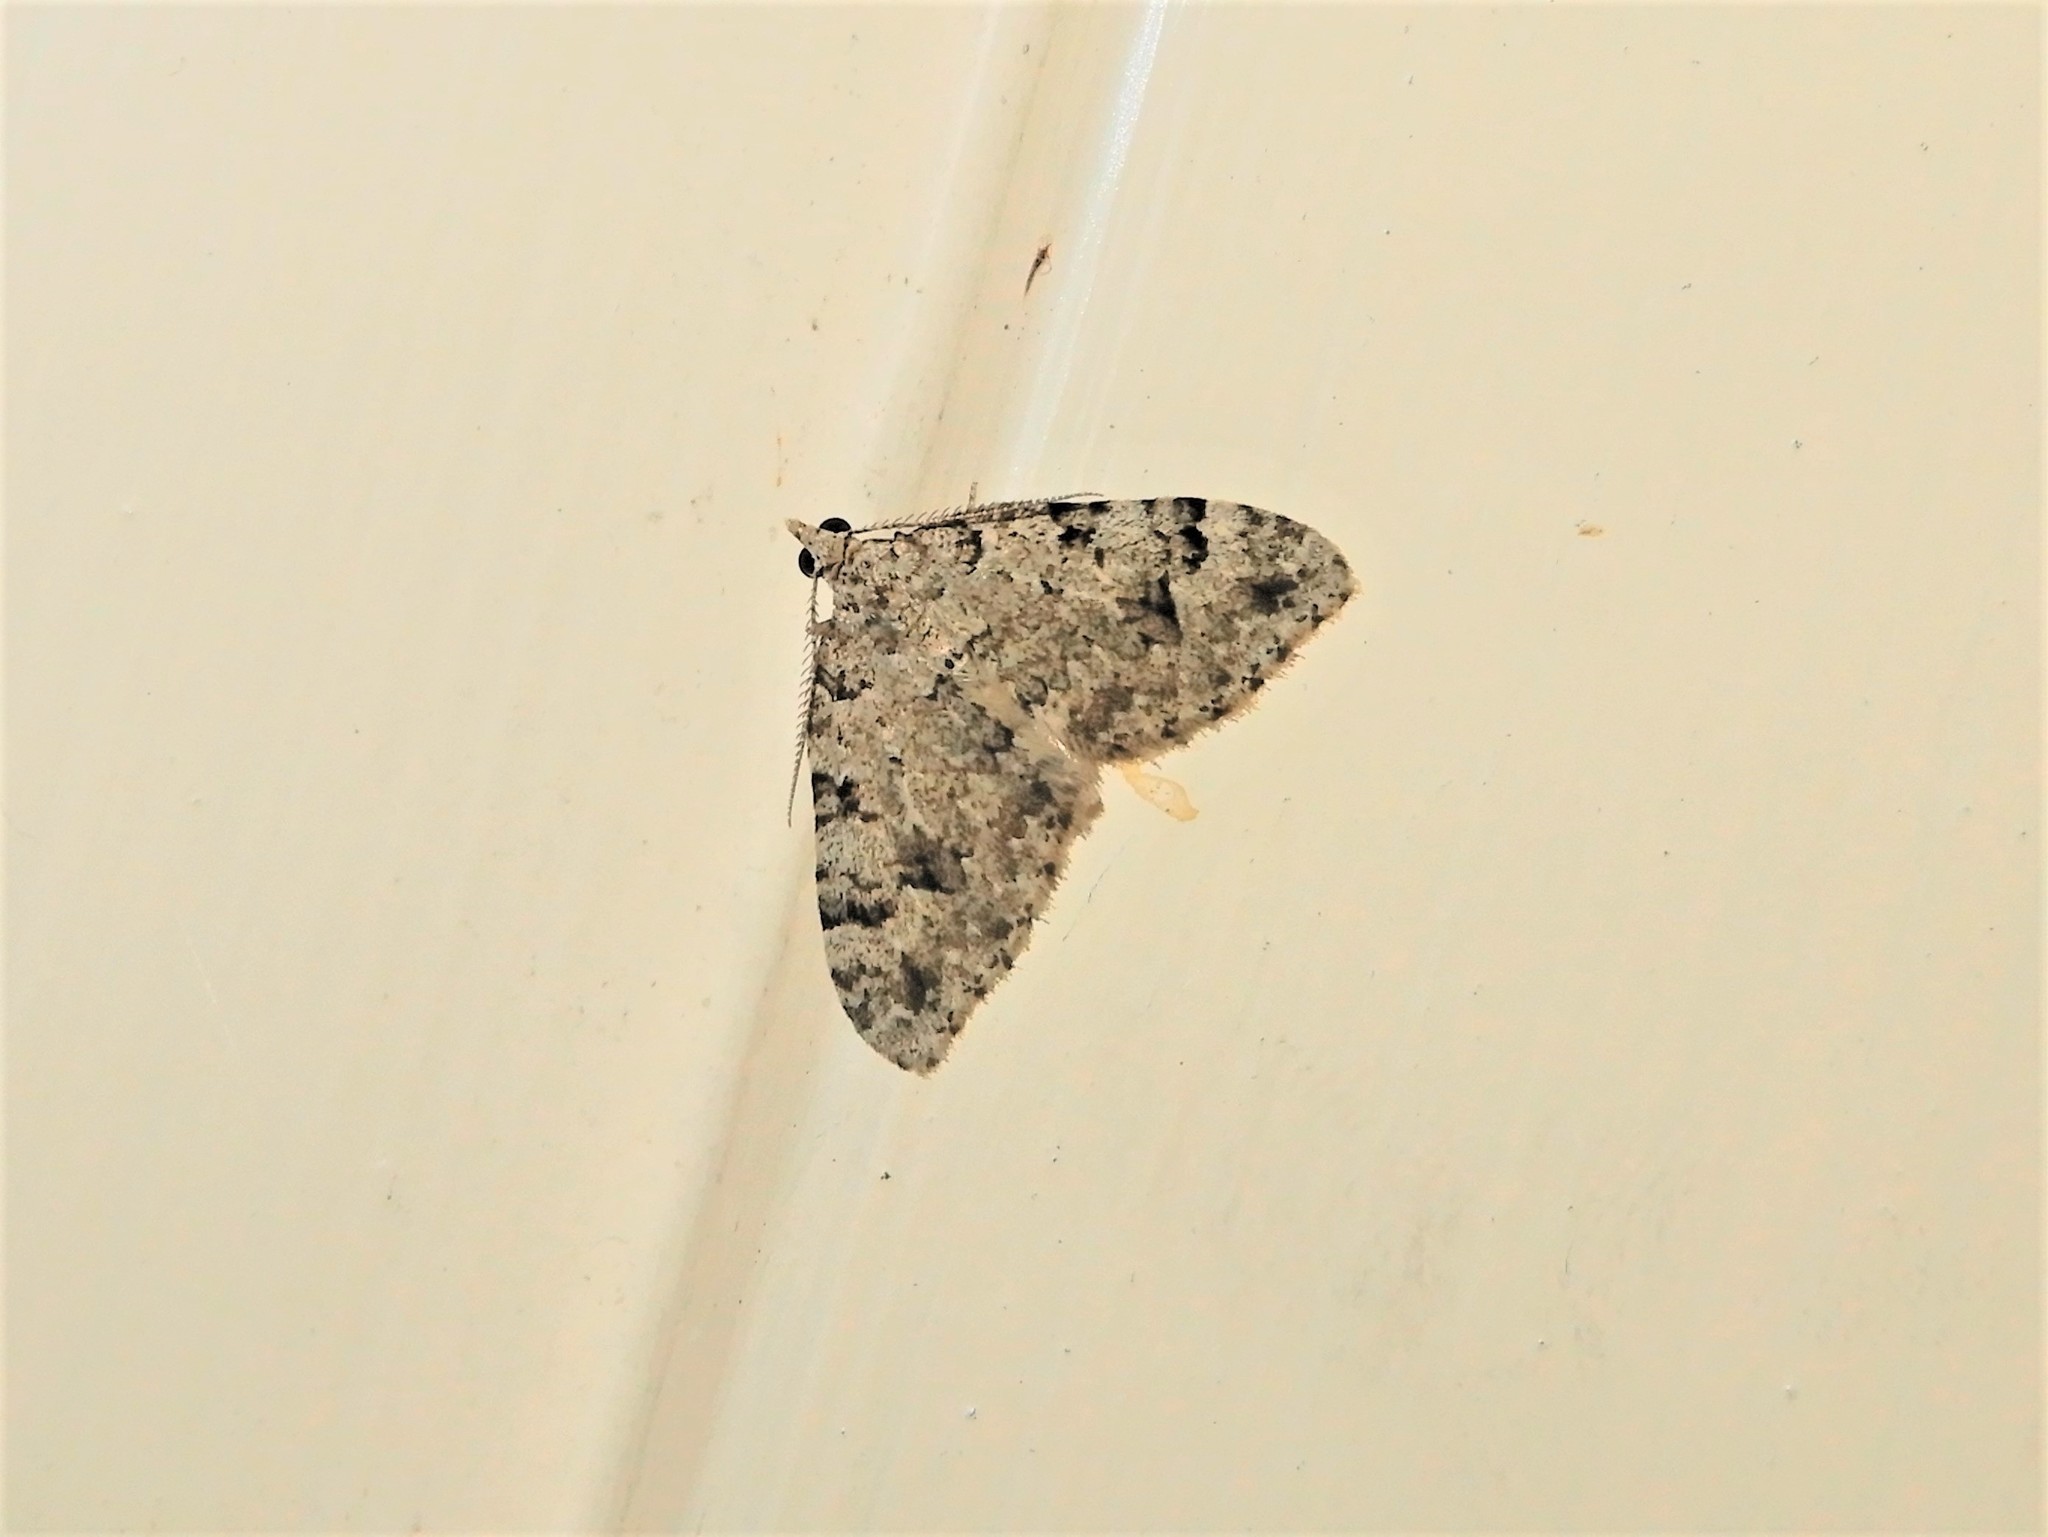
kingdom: Animalia
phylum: Arthropoda
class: Insecta
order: Lepidoptera
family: Geometridae
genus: Helastia
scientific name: Helastia cinerearia
